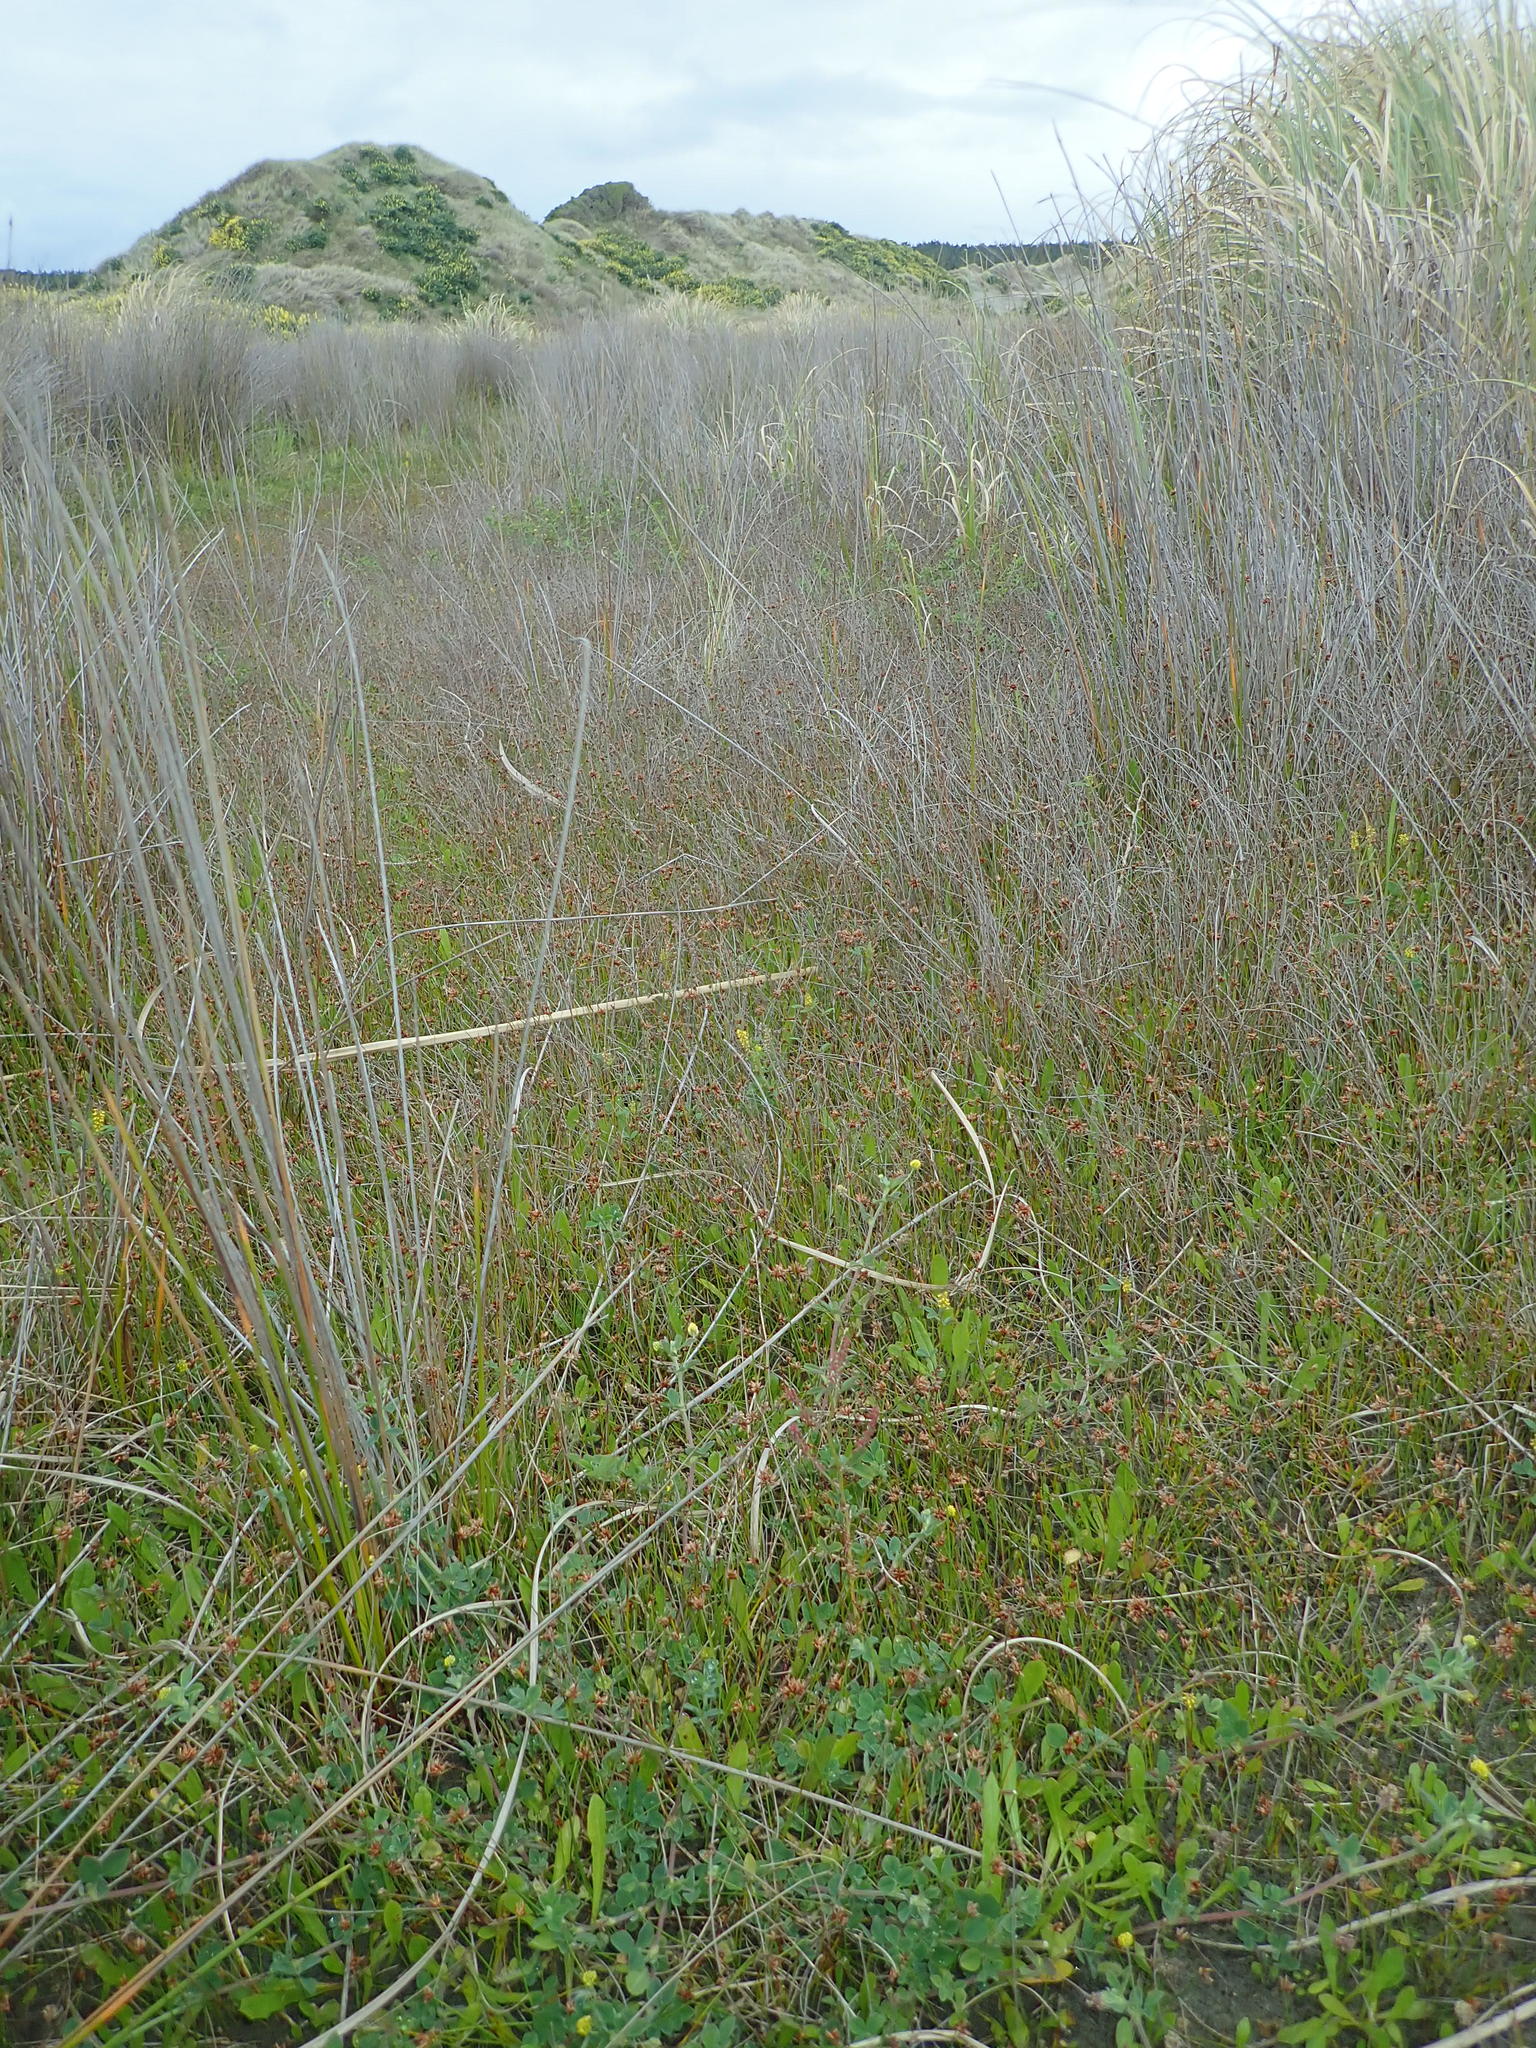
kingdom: Plantae
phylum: Tracheophyta
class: Liliopsida
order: Poales
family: Cyperaceae
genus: Schoenus
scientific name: Schoenus nitens
